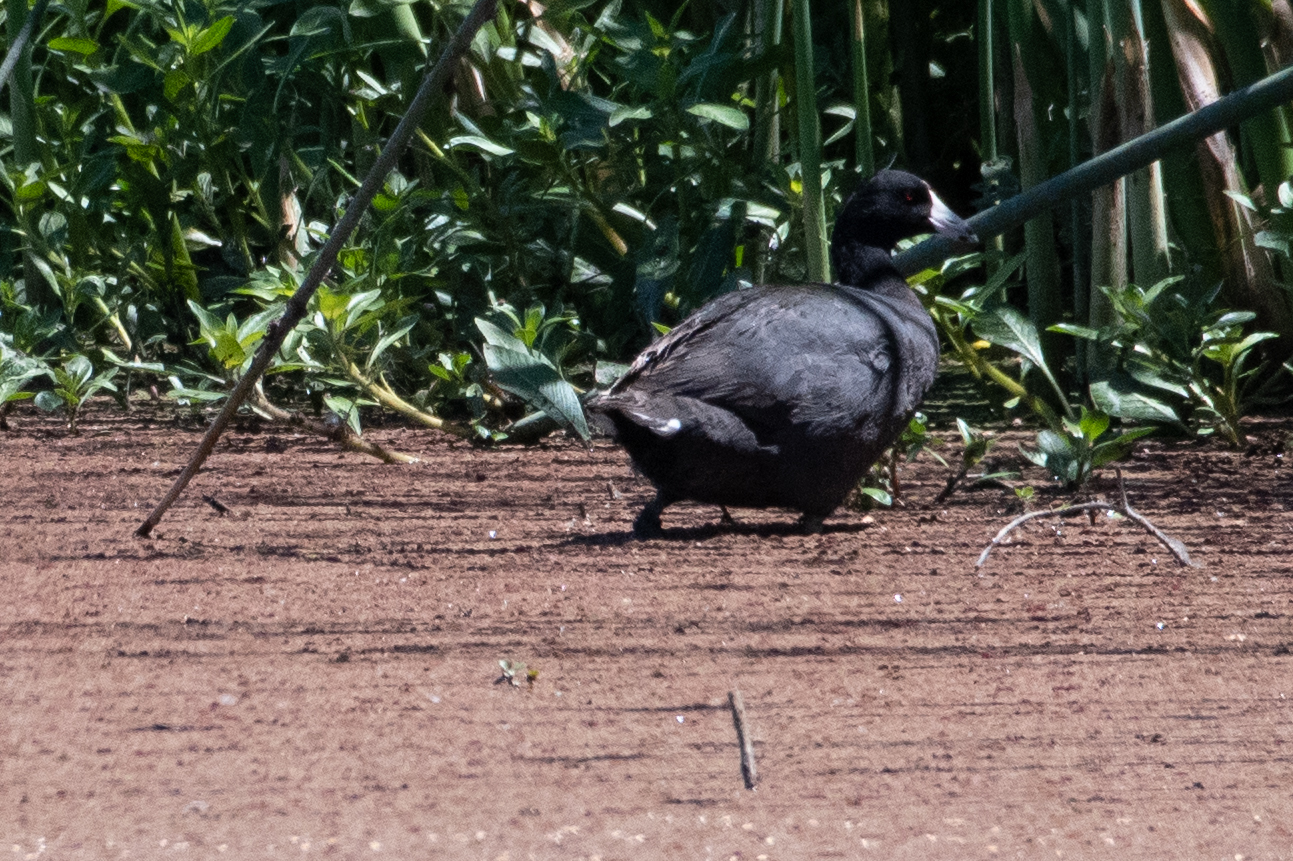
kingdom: Animalia
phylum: Chordata
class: Aves
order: Gruiformes
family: Rallidae
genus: Fulica
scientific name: Fulica americana
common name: American coot
